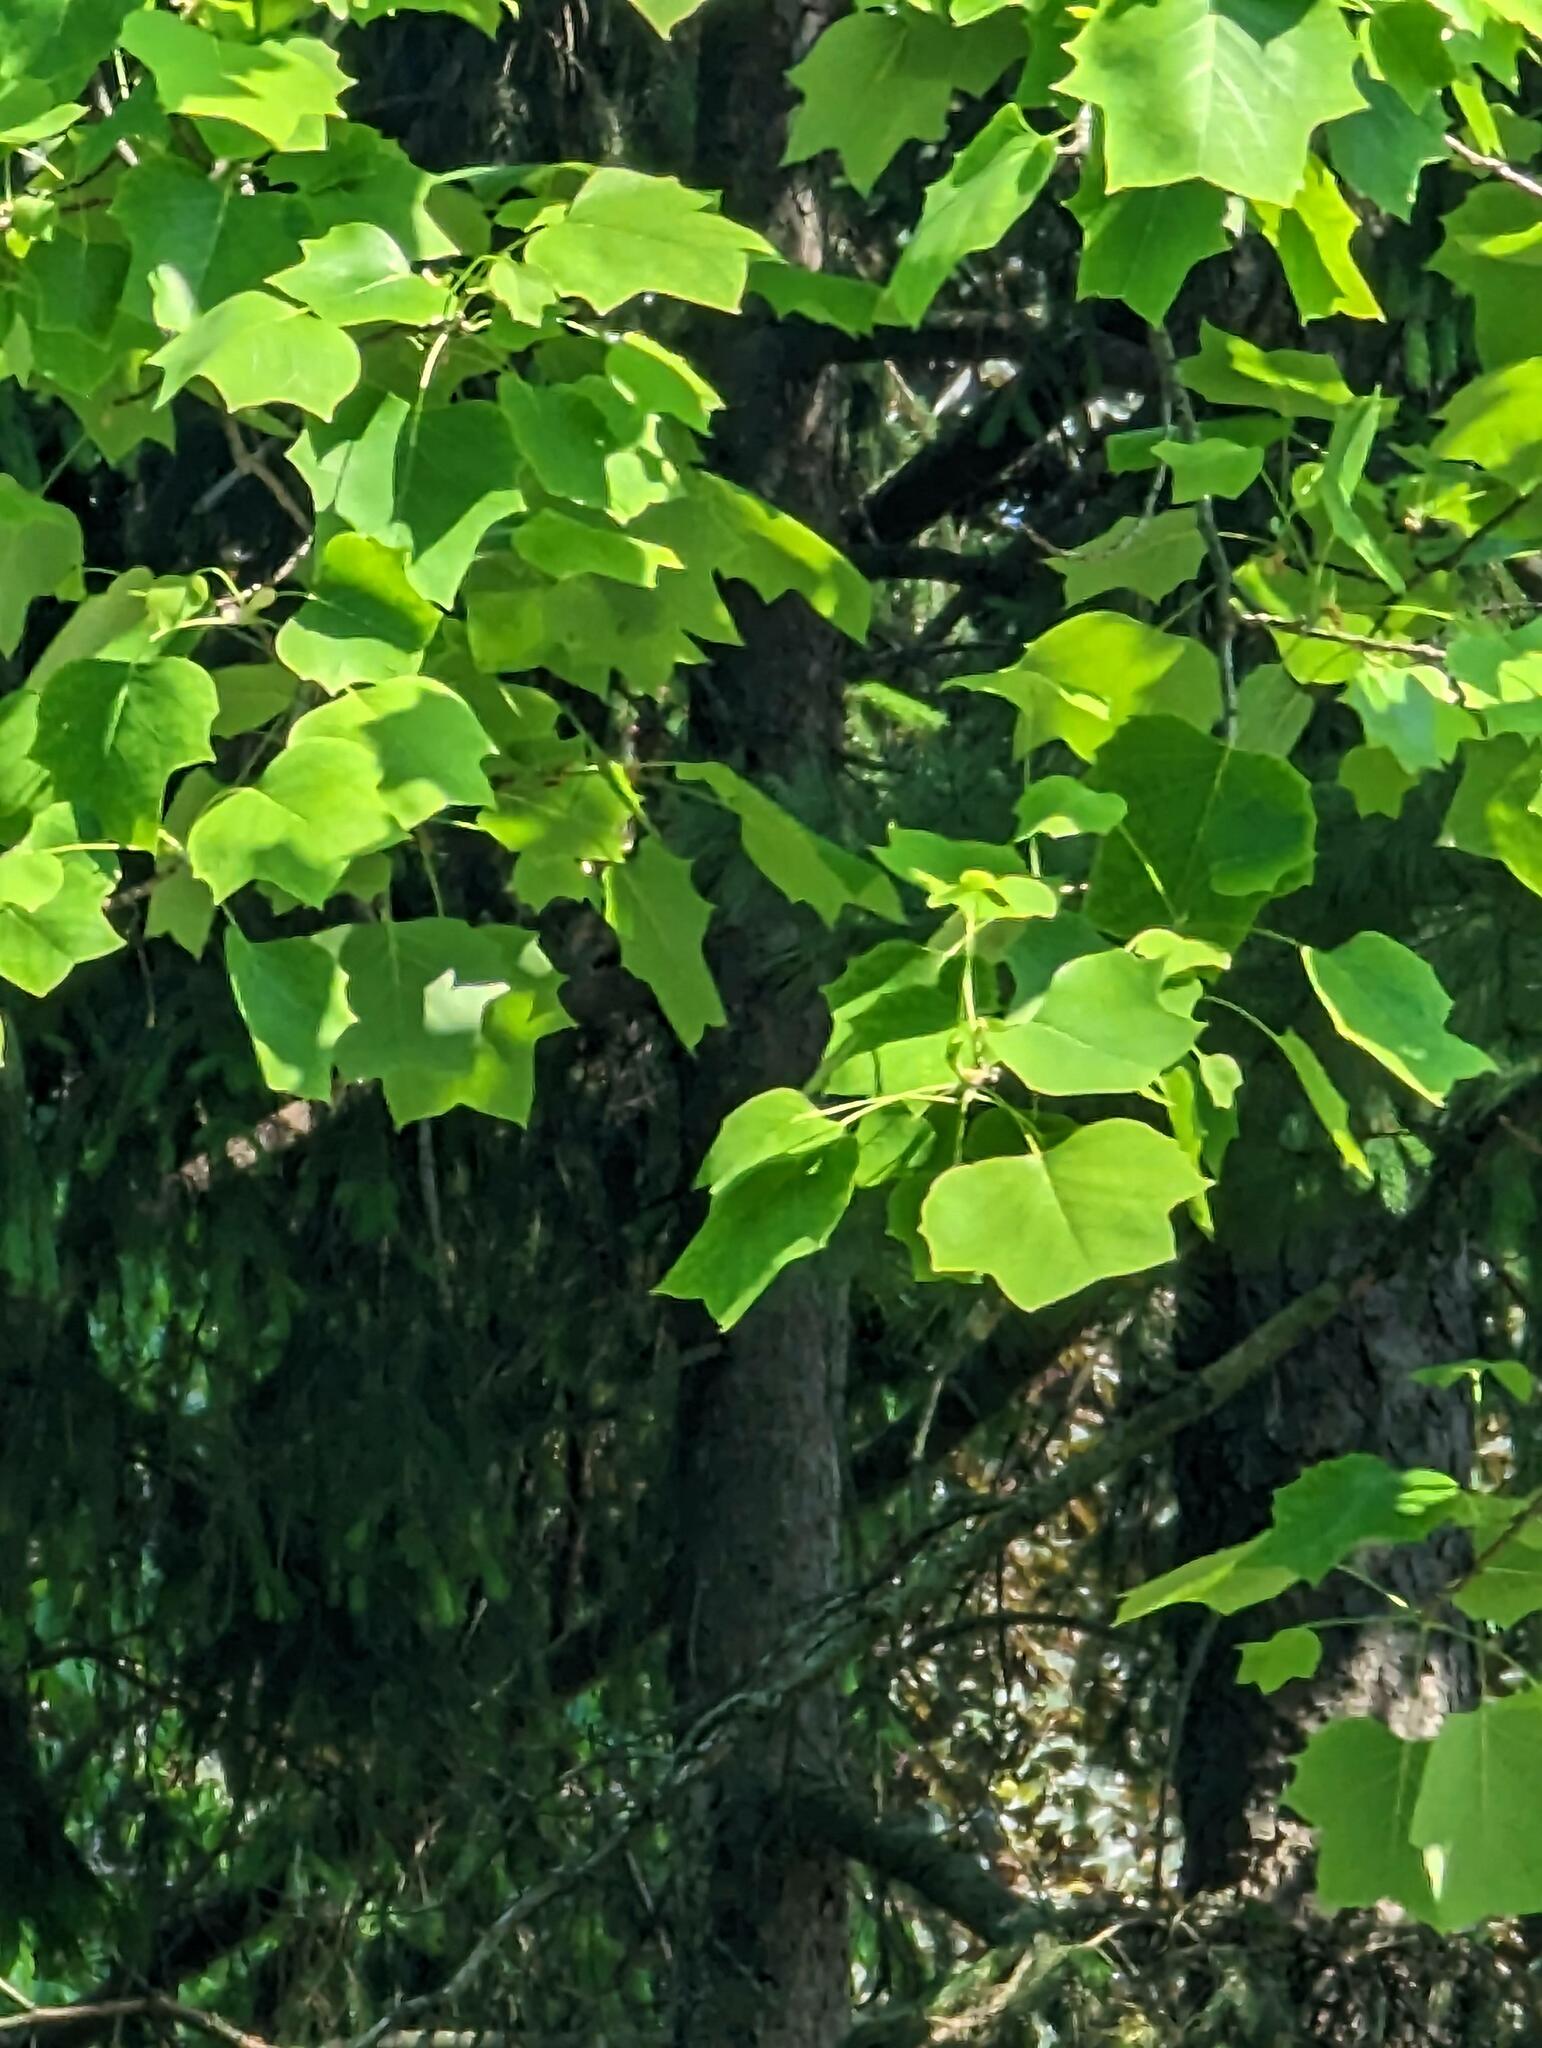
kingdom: Plantae
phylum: Tracheophyta
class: Magnoliopsida
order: Magnoliales
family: Magnoliaceae
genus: Liriodendron
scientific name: Liriodendron tulipifera
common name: Tulip tree
